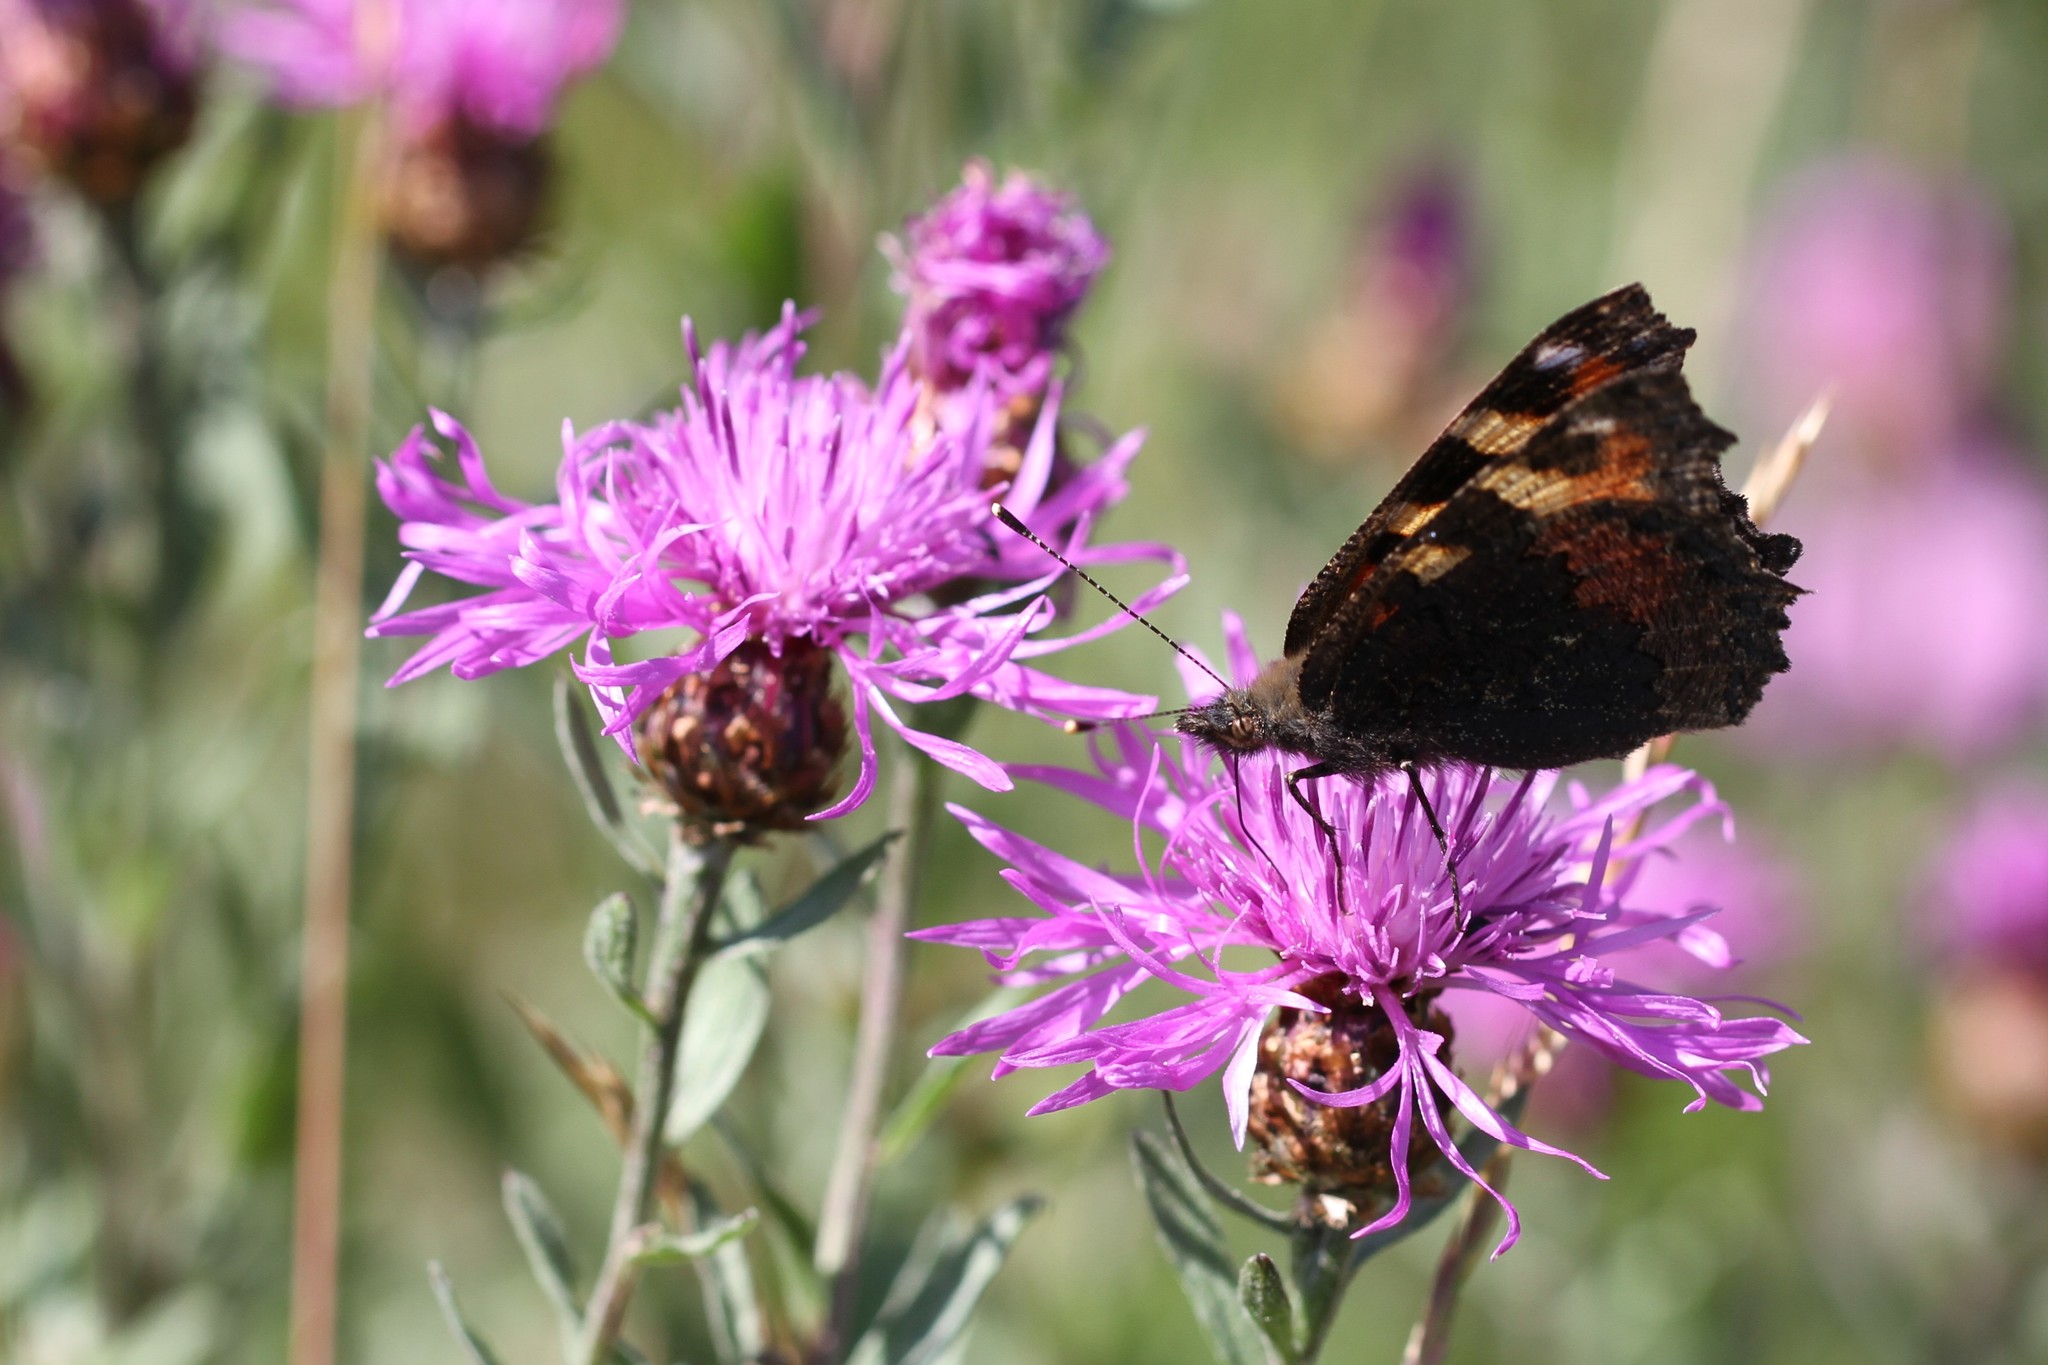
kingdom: Animalia
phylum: Arthropoda
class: Insecta
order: Lepidoptera
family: Nymphalidae
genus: Aglais
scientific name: Aglais urticae
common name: Small tortoiseshell
